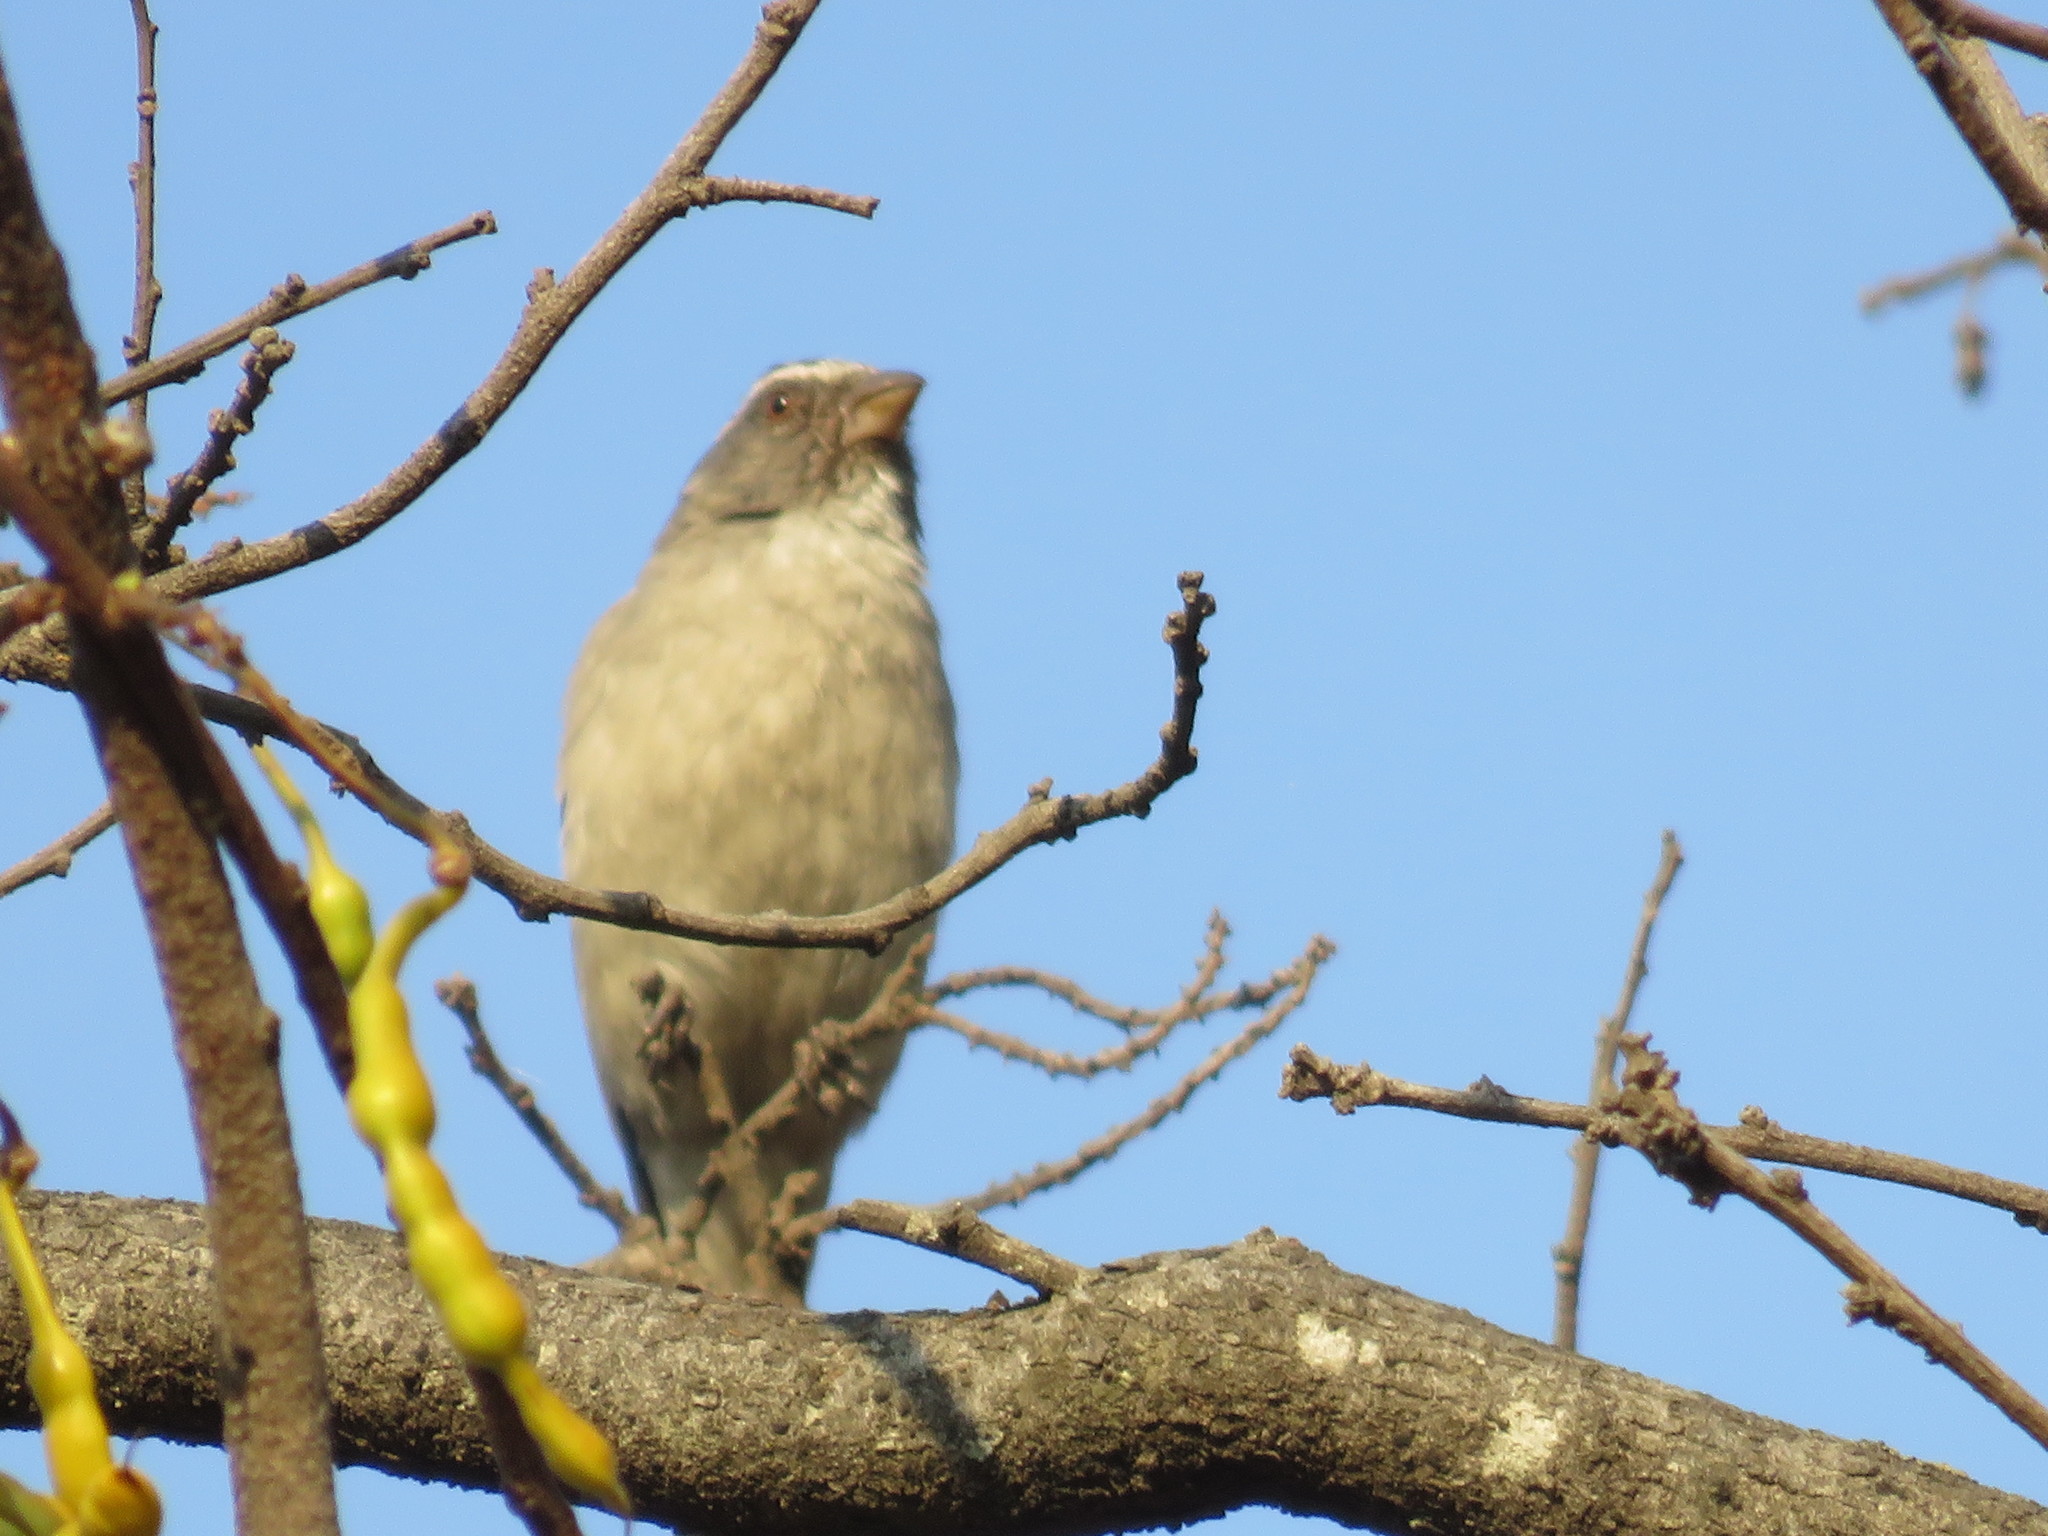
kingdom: Animalia
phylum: Chordata
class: Aves
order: Passeriformes
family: Fringillidae
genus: Crithagra
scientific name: Crithagra gularis
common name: Streaky-headed seedeater
